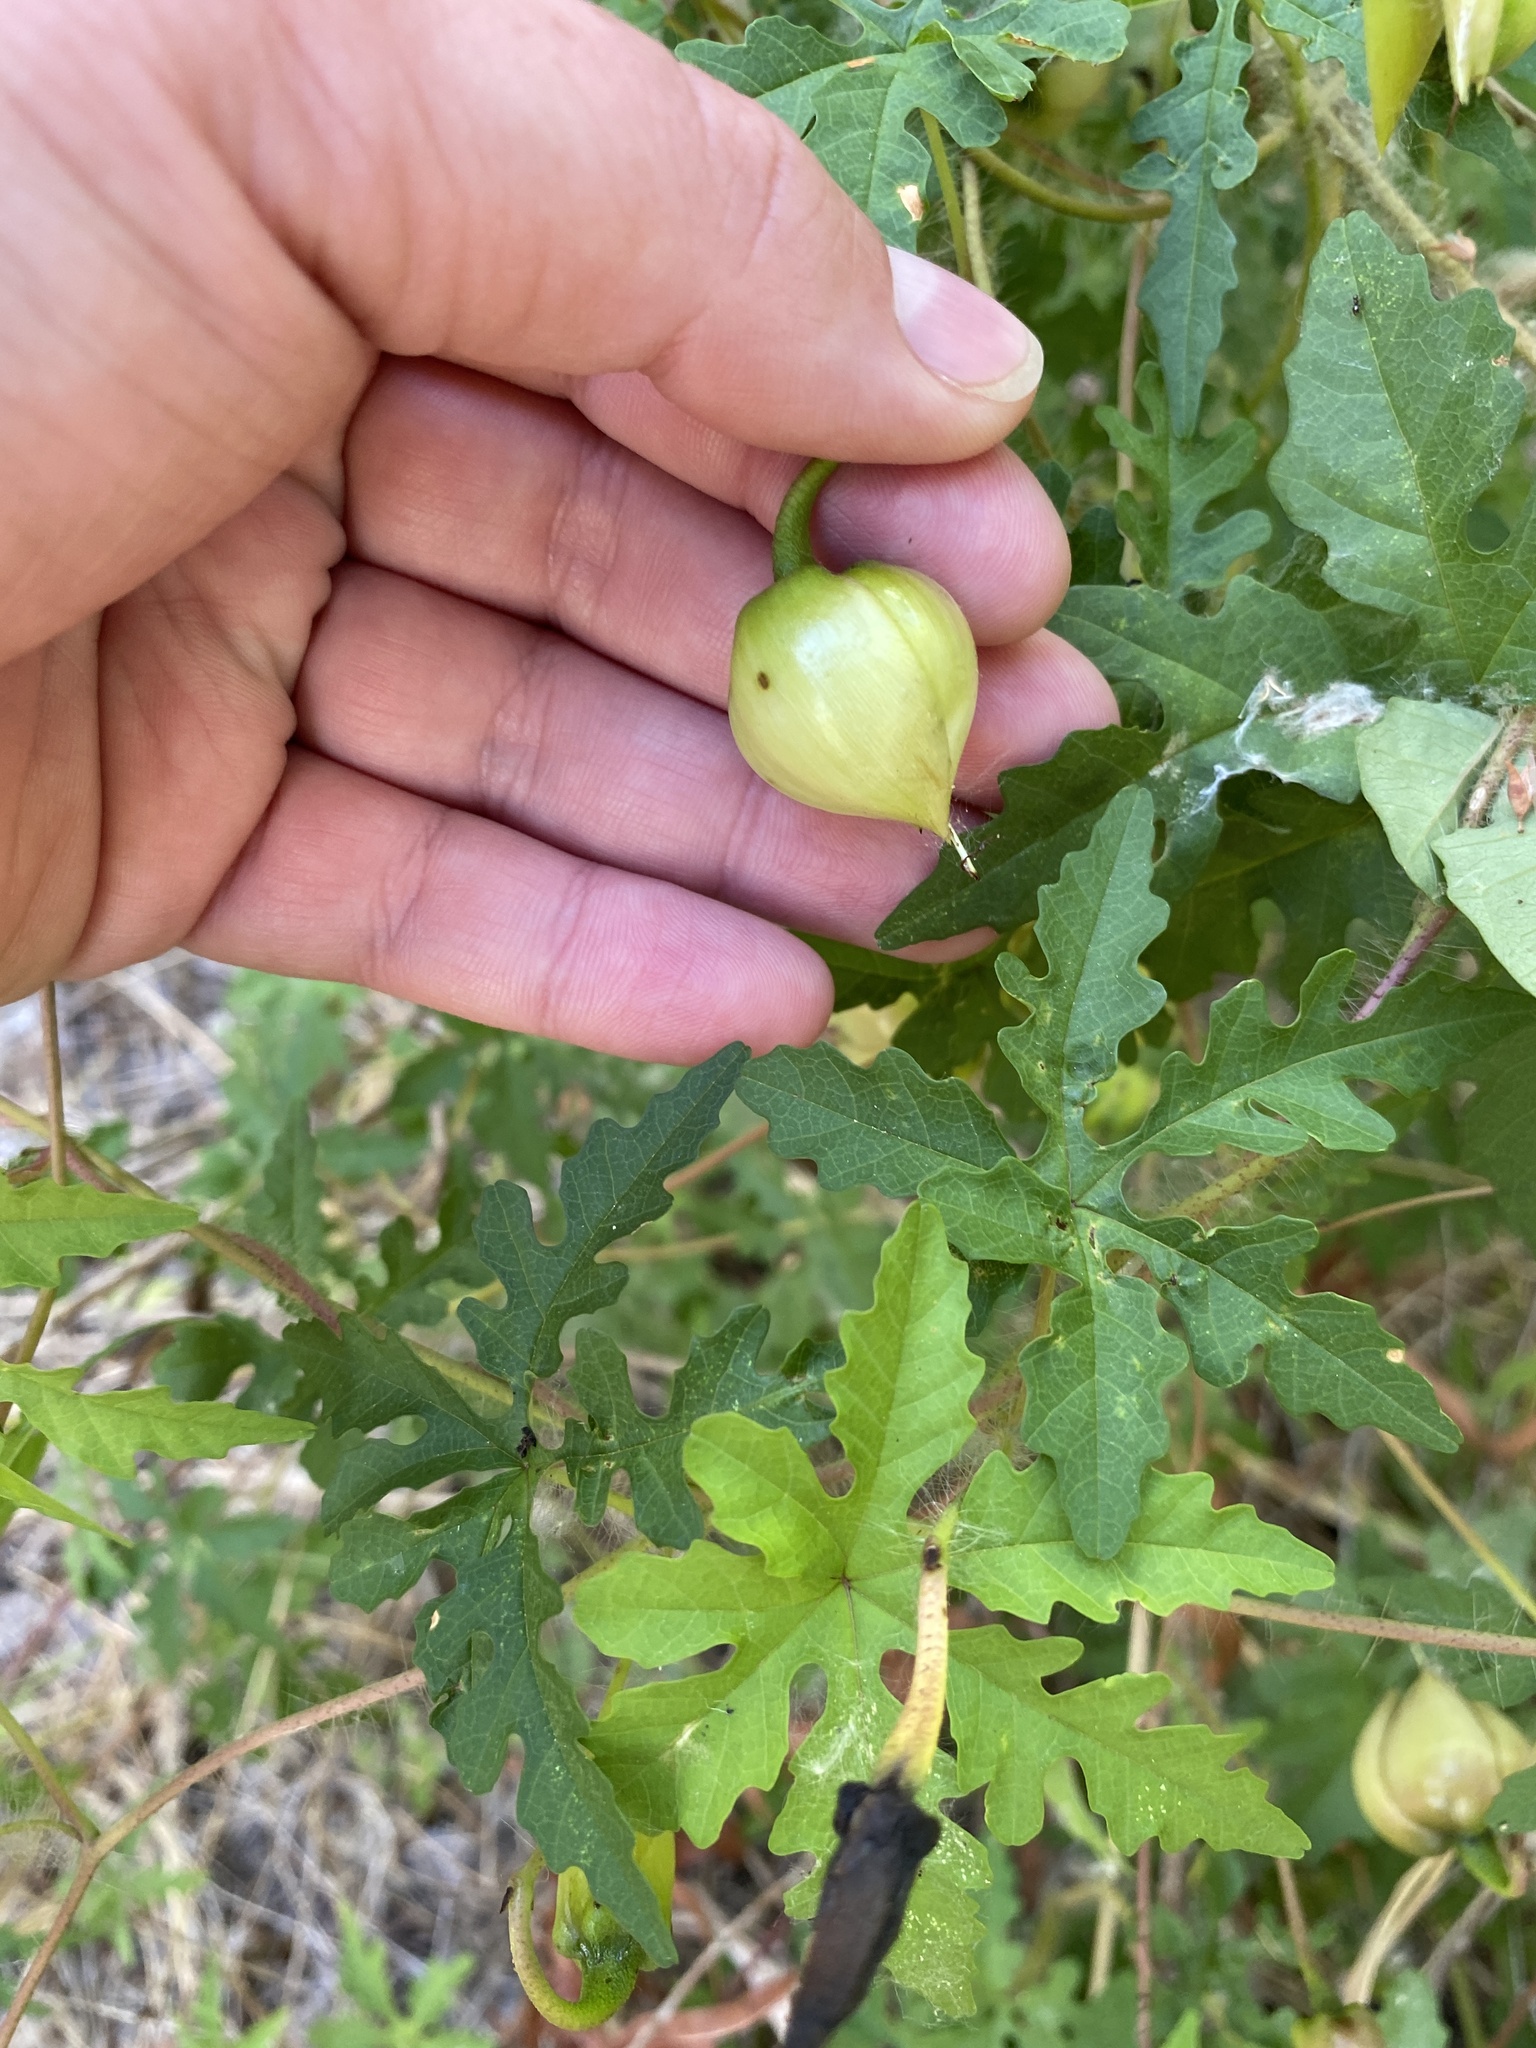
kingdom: Plantae
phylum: Tracheophyta
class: Magnoliopsida
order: Solanales
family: Convolvulaceae
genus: Distimake
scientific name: Distimake dissectus
